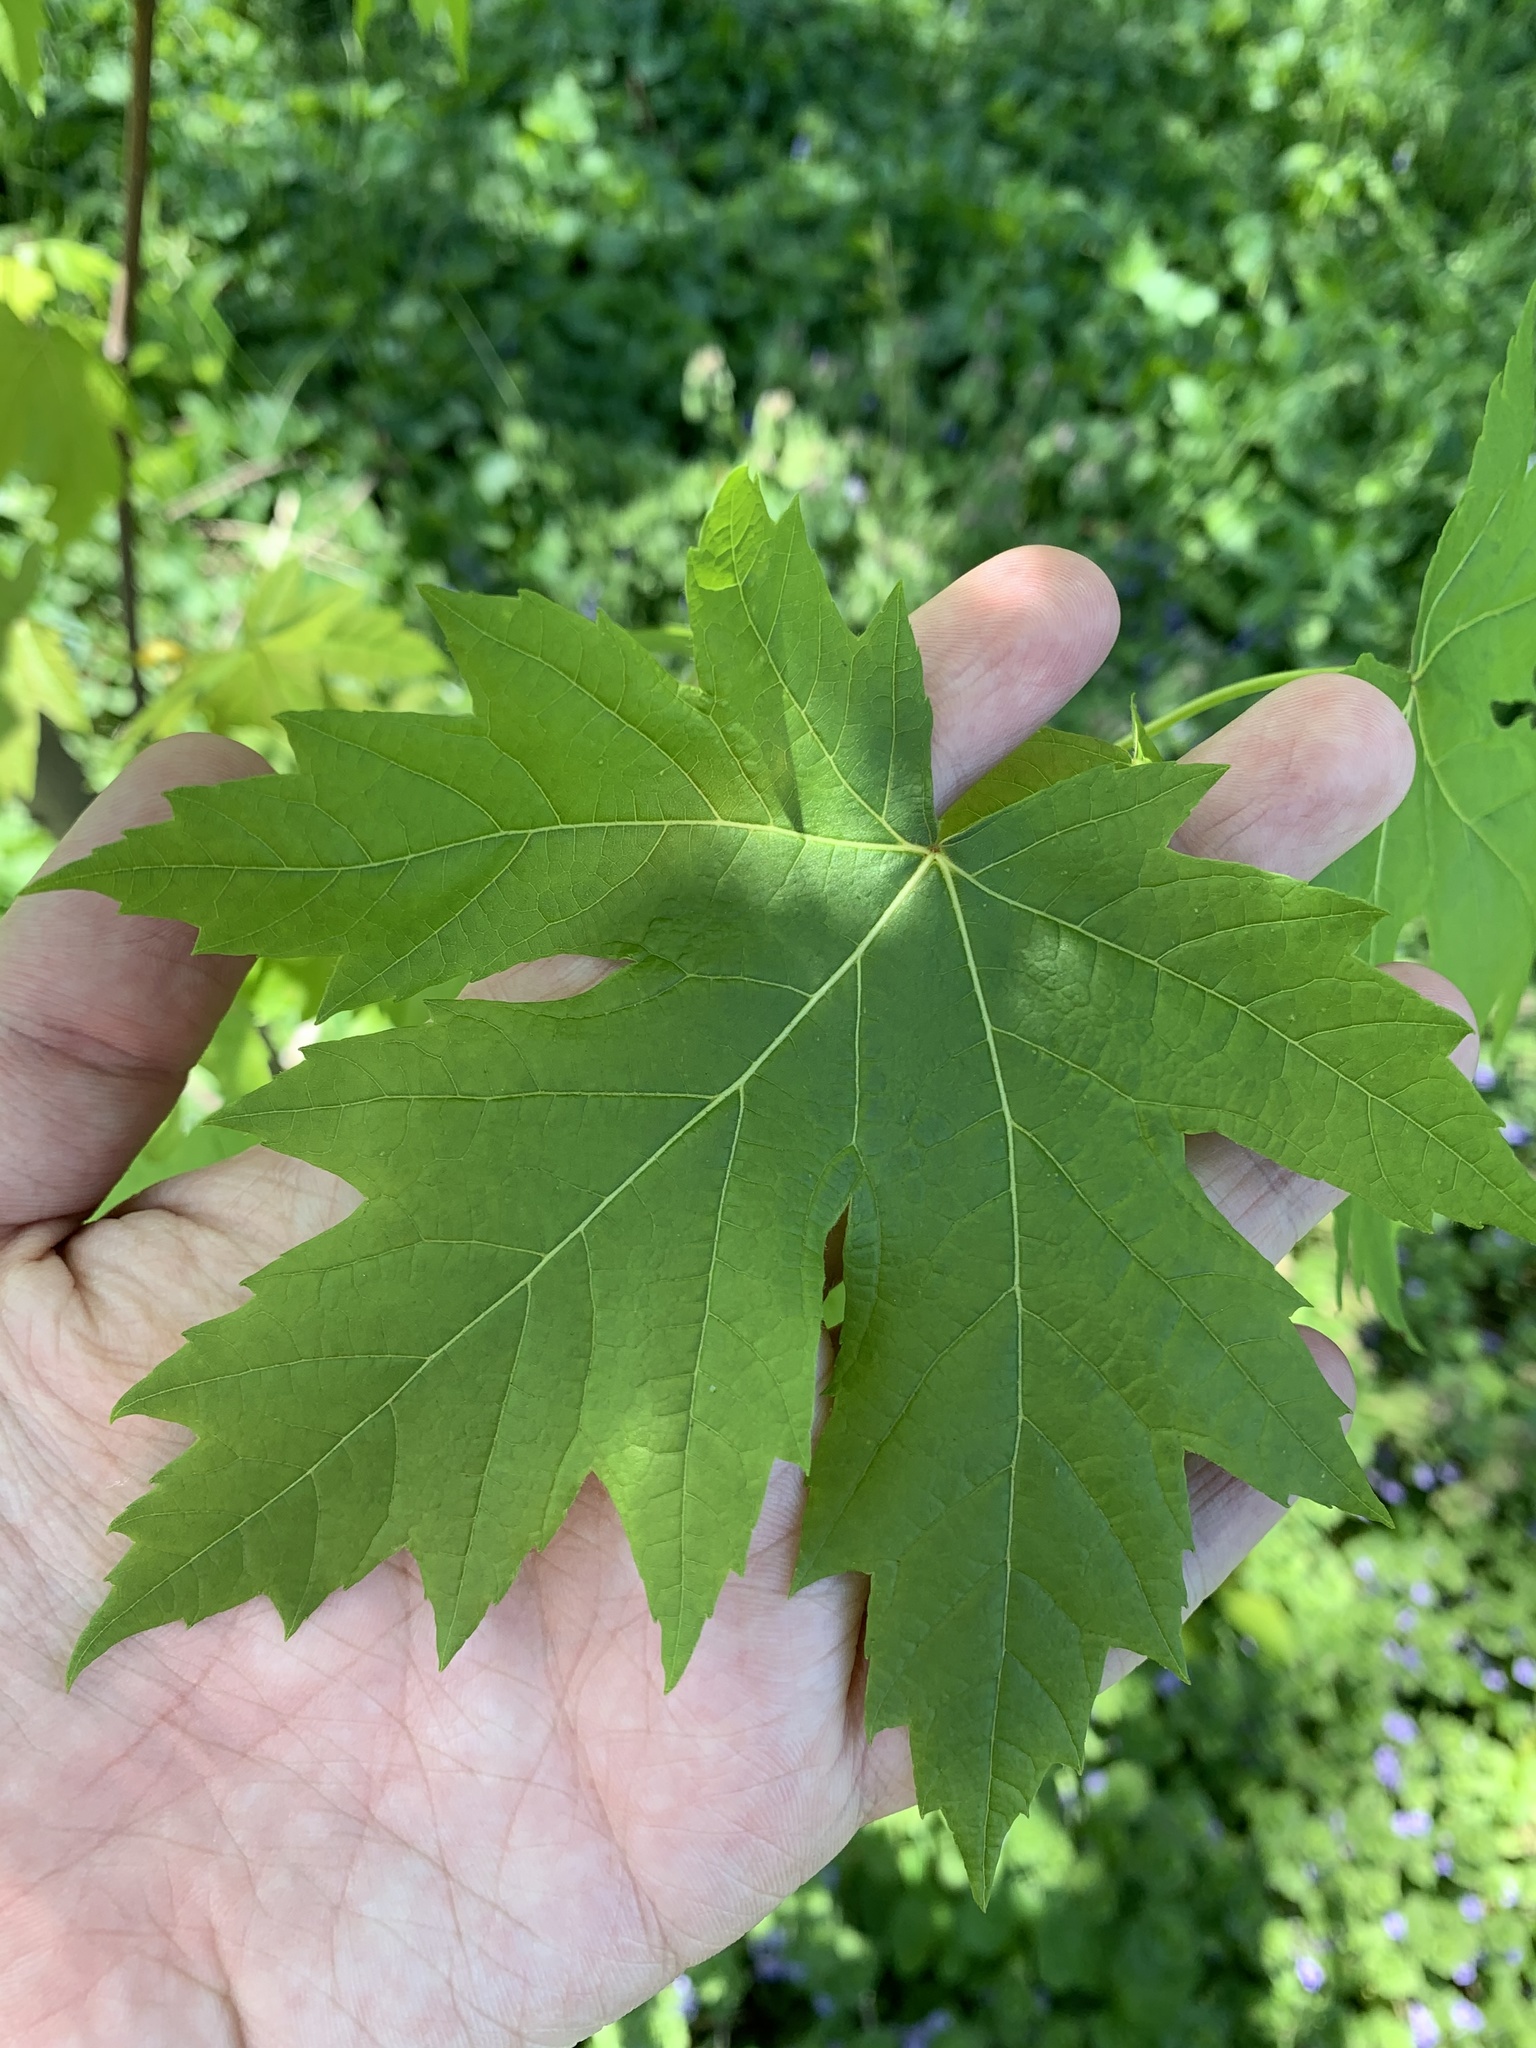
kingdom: Plantae
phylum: Tracheophyta
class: Magnoliopsida
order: Sapindales
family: Sapindaceae
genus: Acer
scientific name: Acer saccharinum
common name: Silver maple
